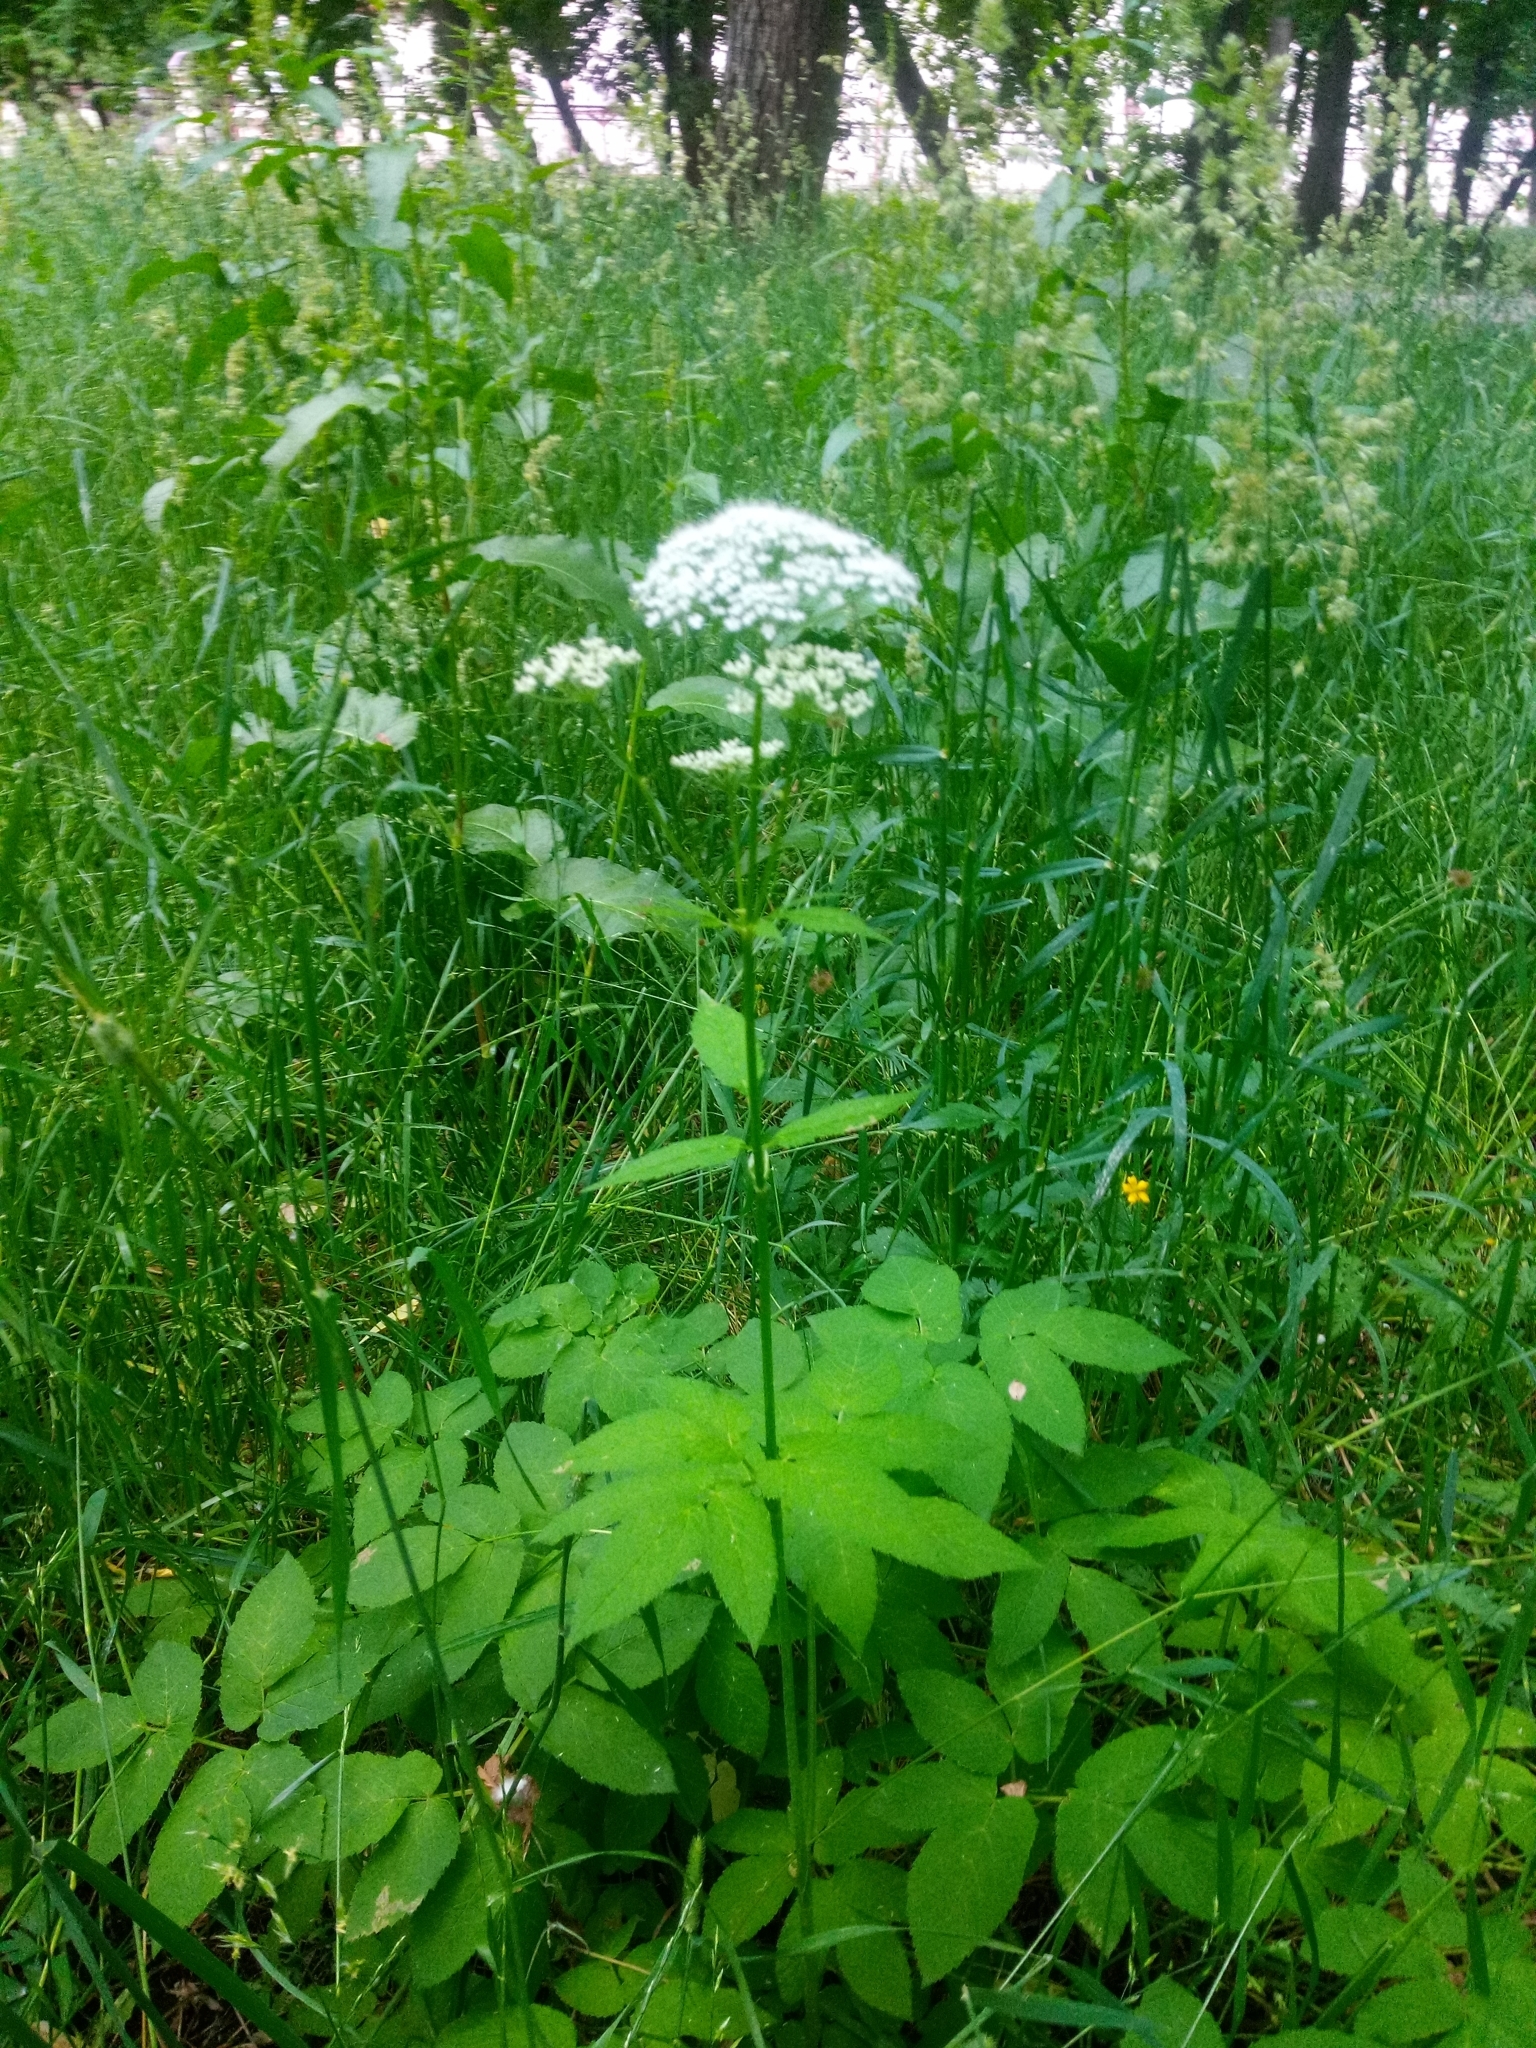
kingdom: Plantae
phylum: Tracheophyta
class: Magnoliopsida
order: Apiales
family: Apiaceae
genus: Aegopodium
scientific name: Aegopodium podagraria
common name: Ground-elder
